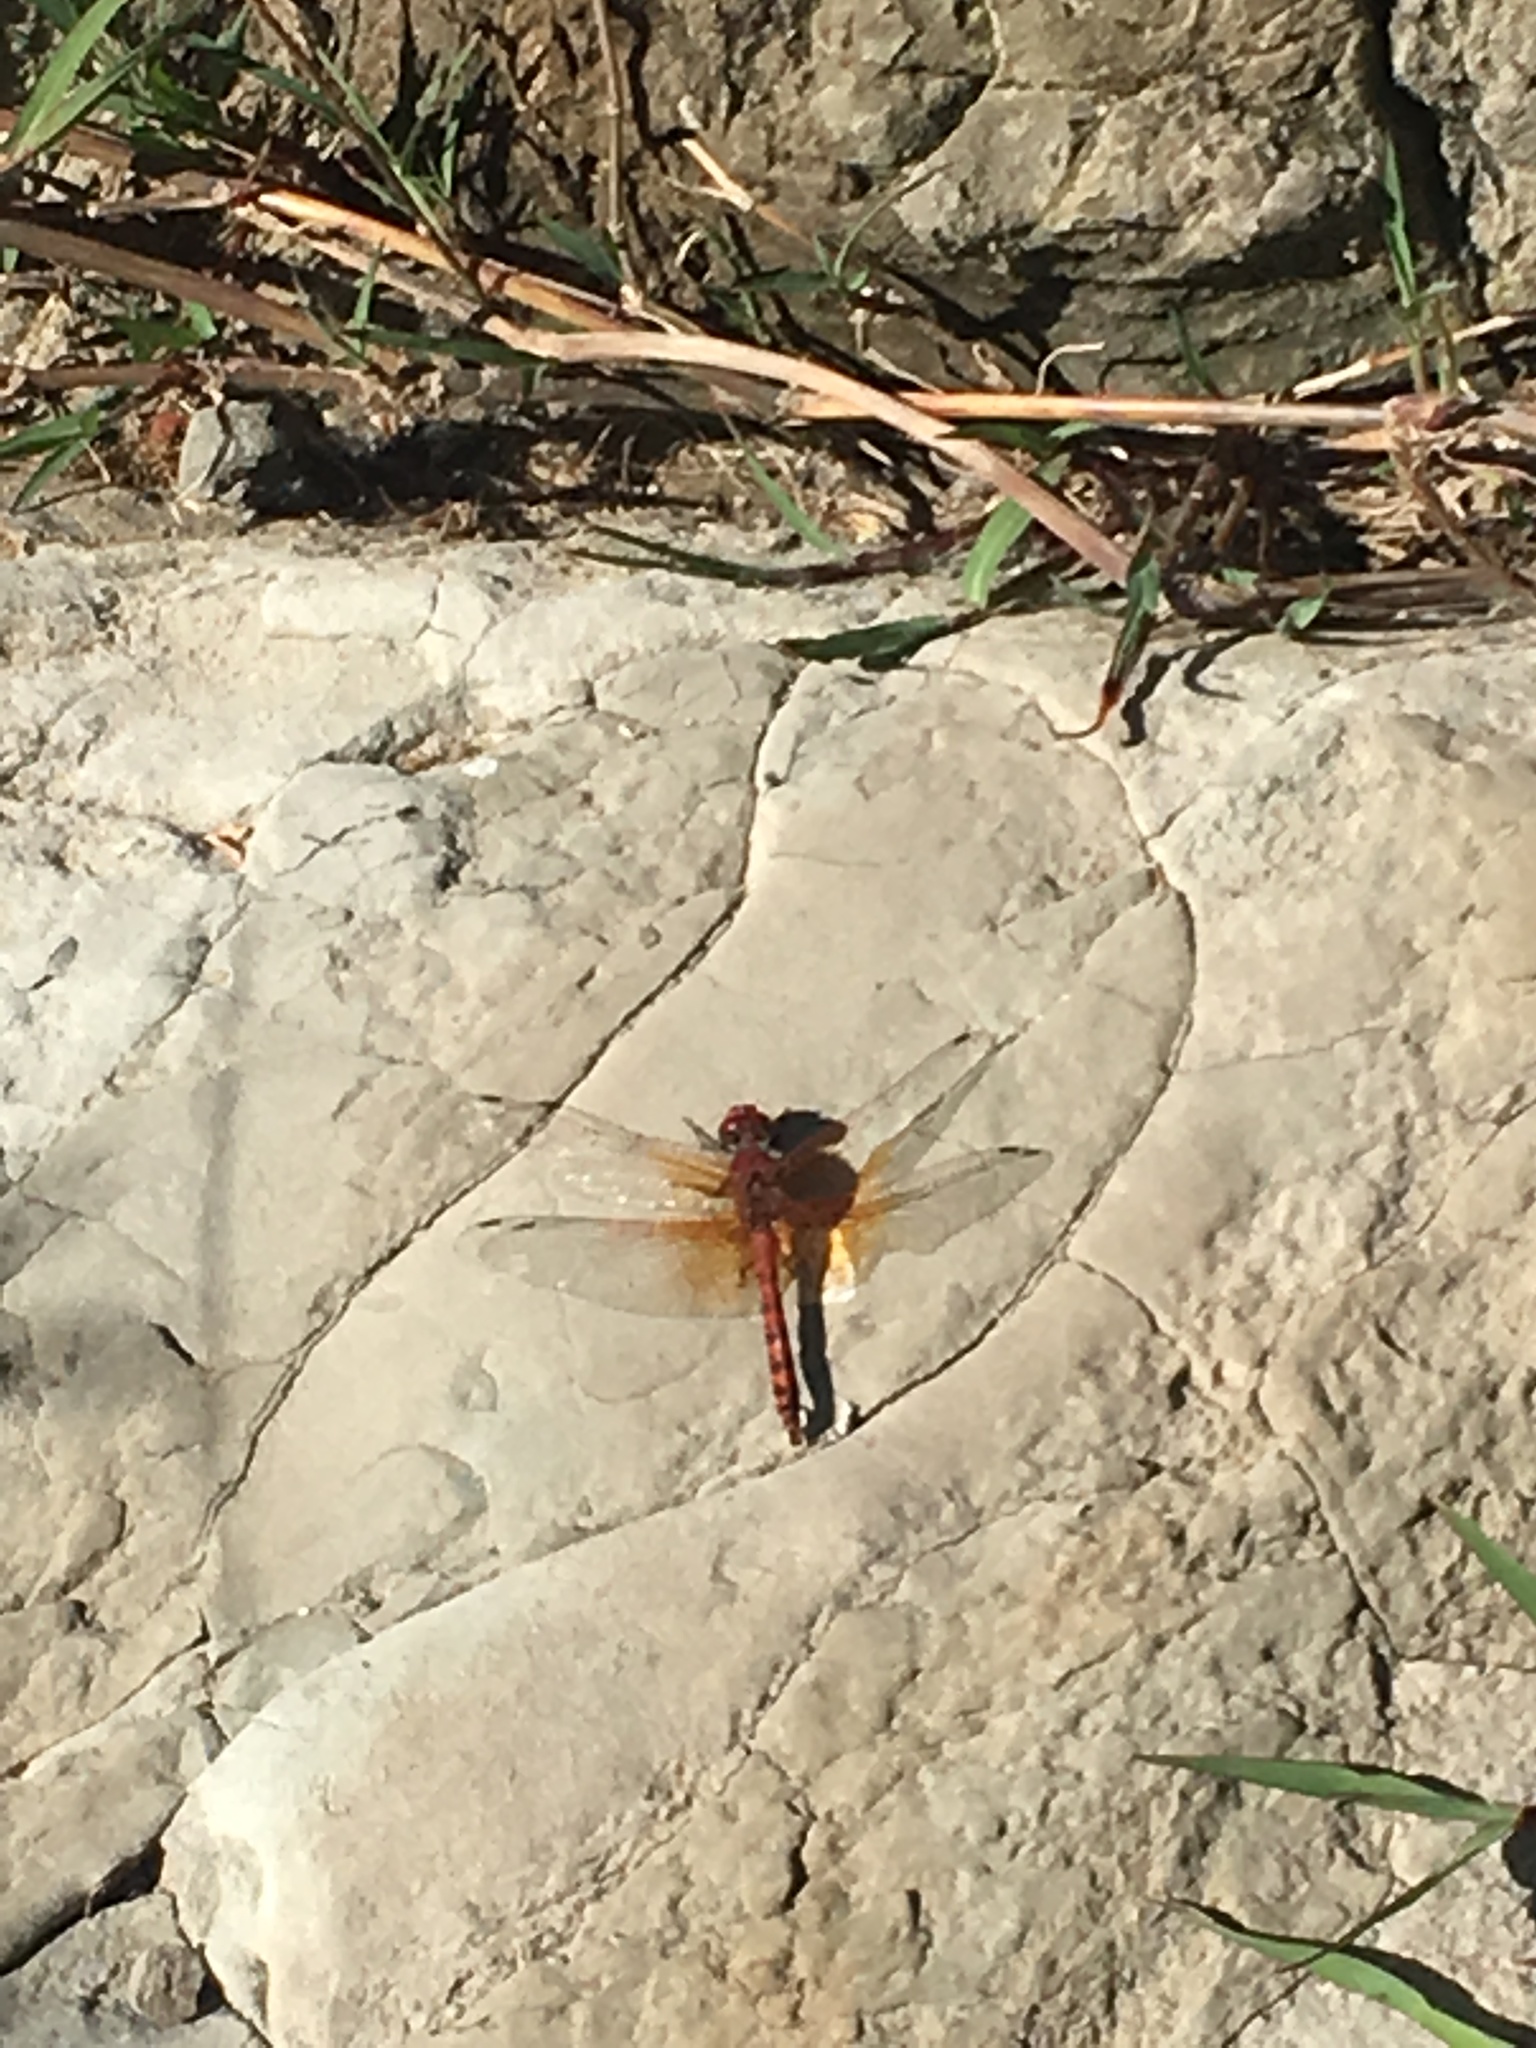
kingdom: Animalia
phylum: Arthropoda
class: Insecta
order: Odonata
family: Libellulidae
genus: Paltothemis
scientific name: Paltothemis lineatipes
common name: Red rock skimmer
